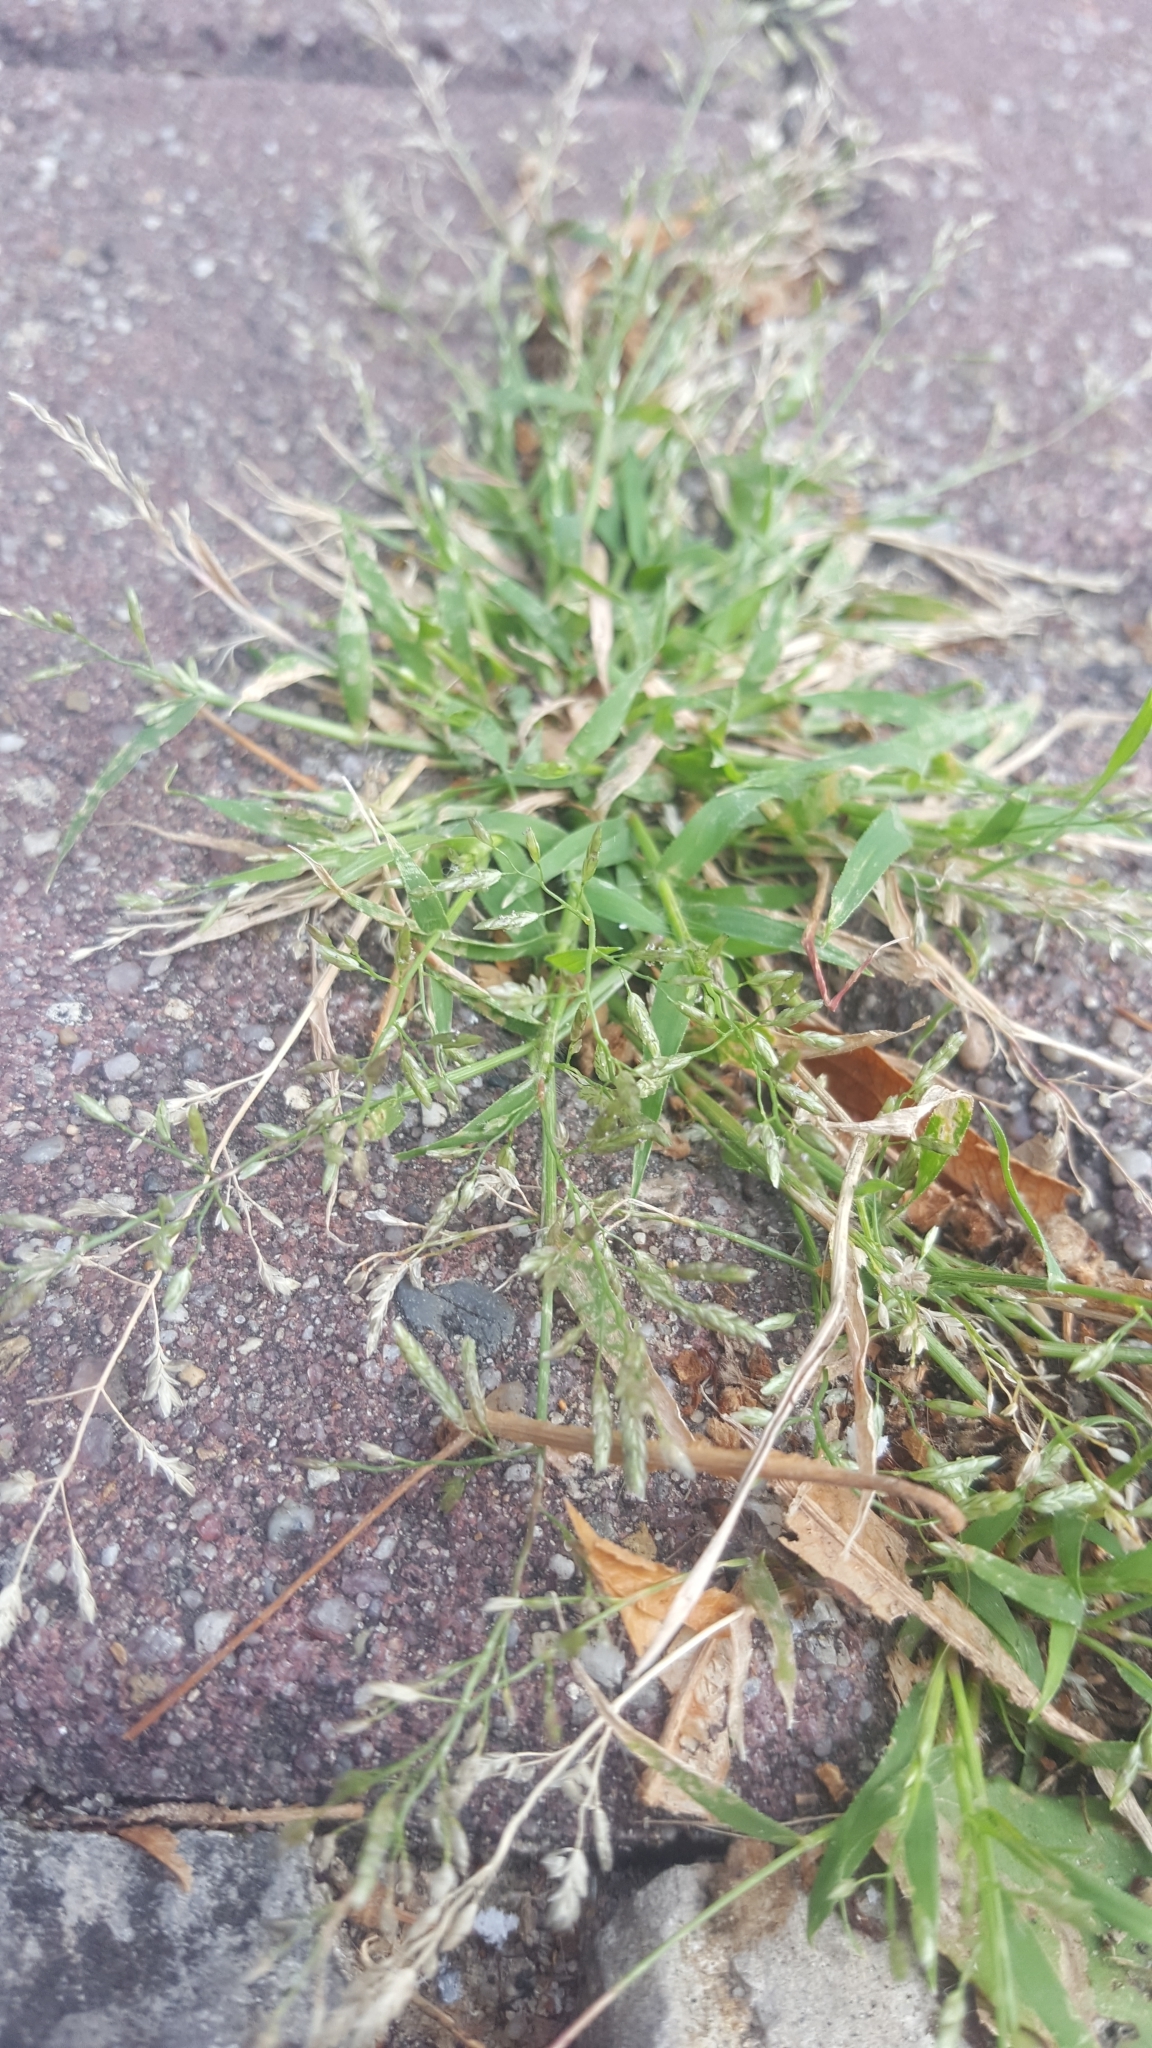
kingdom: Plantae
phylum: Tracheophyta
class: Liliopsida
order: Poales
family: Poaceae
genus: Eragrostis
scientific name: Eragrostis minor
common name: Small love-grass
